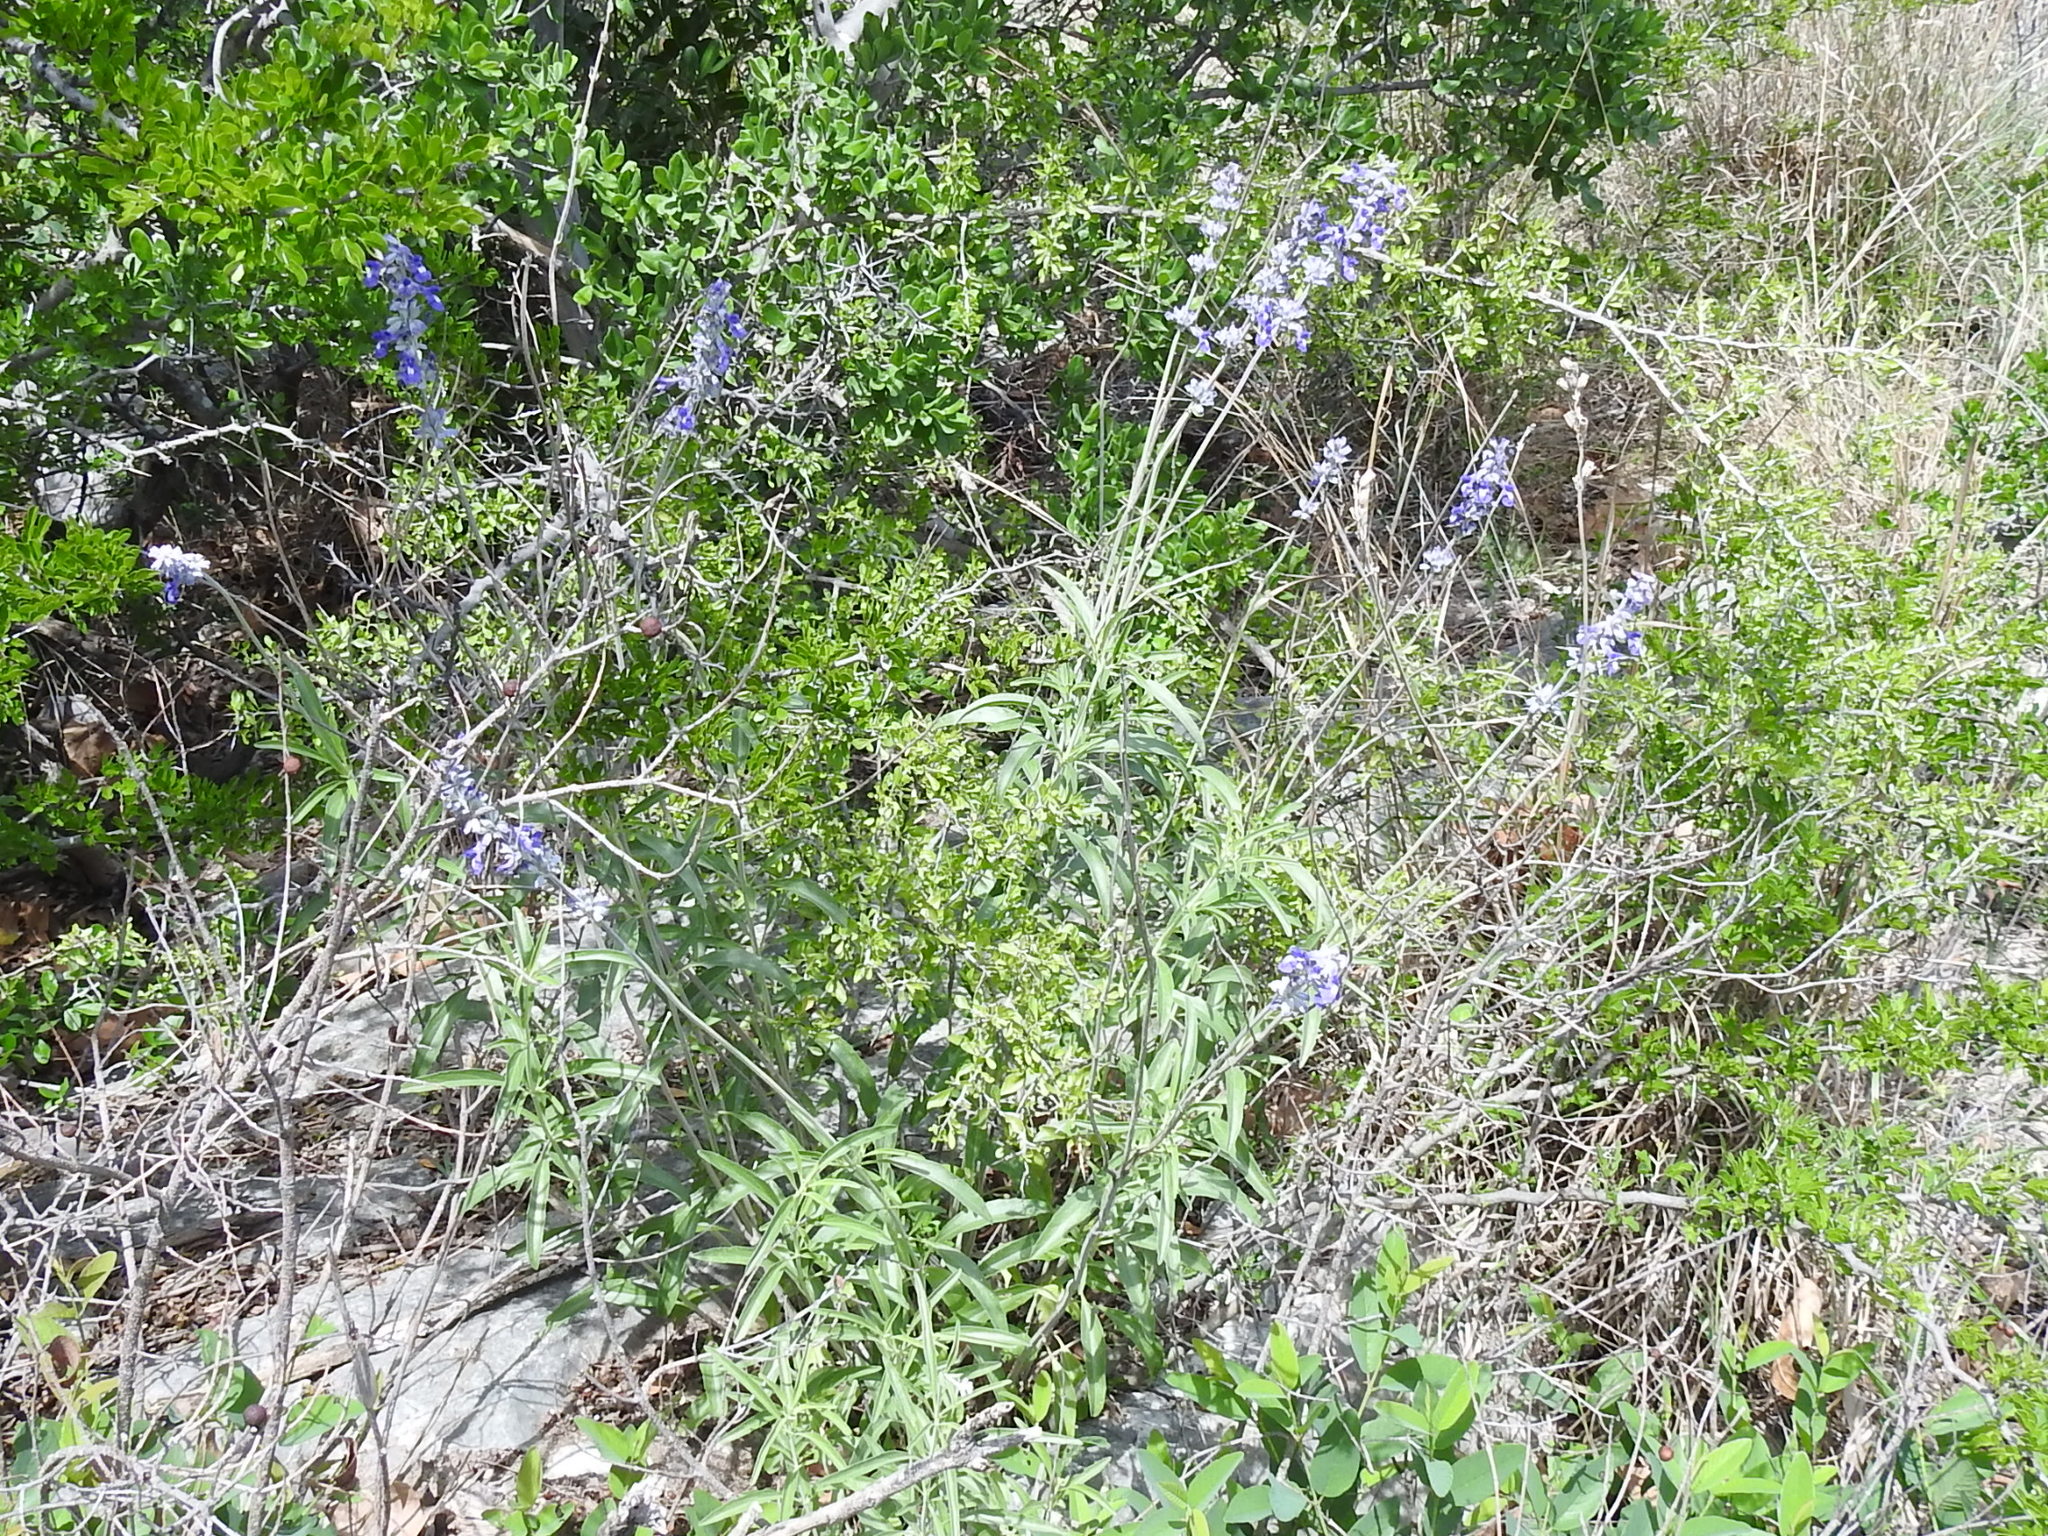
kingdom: Plantae
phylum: Tracheophyta
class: Magnoliopsida
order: Lamiales
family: Lamiaceae
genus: Salvia
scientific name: Salvia farinacea
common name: Mealy sage
